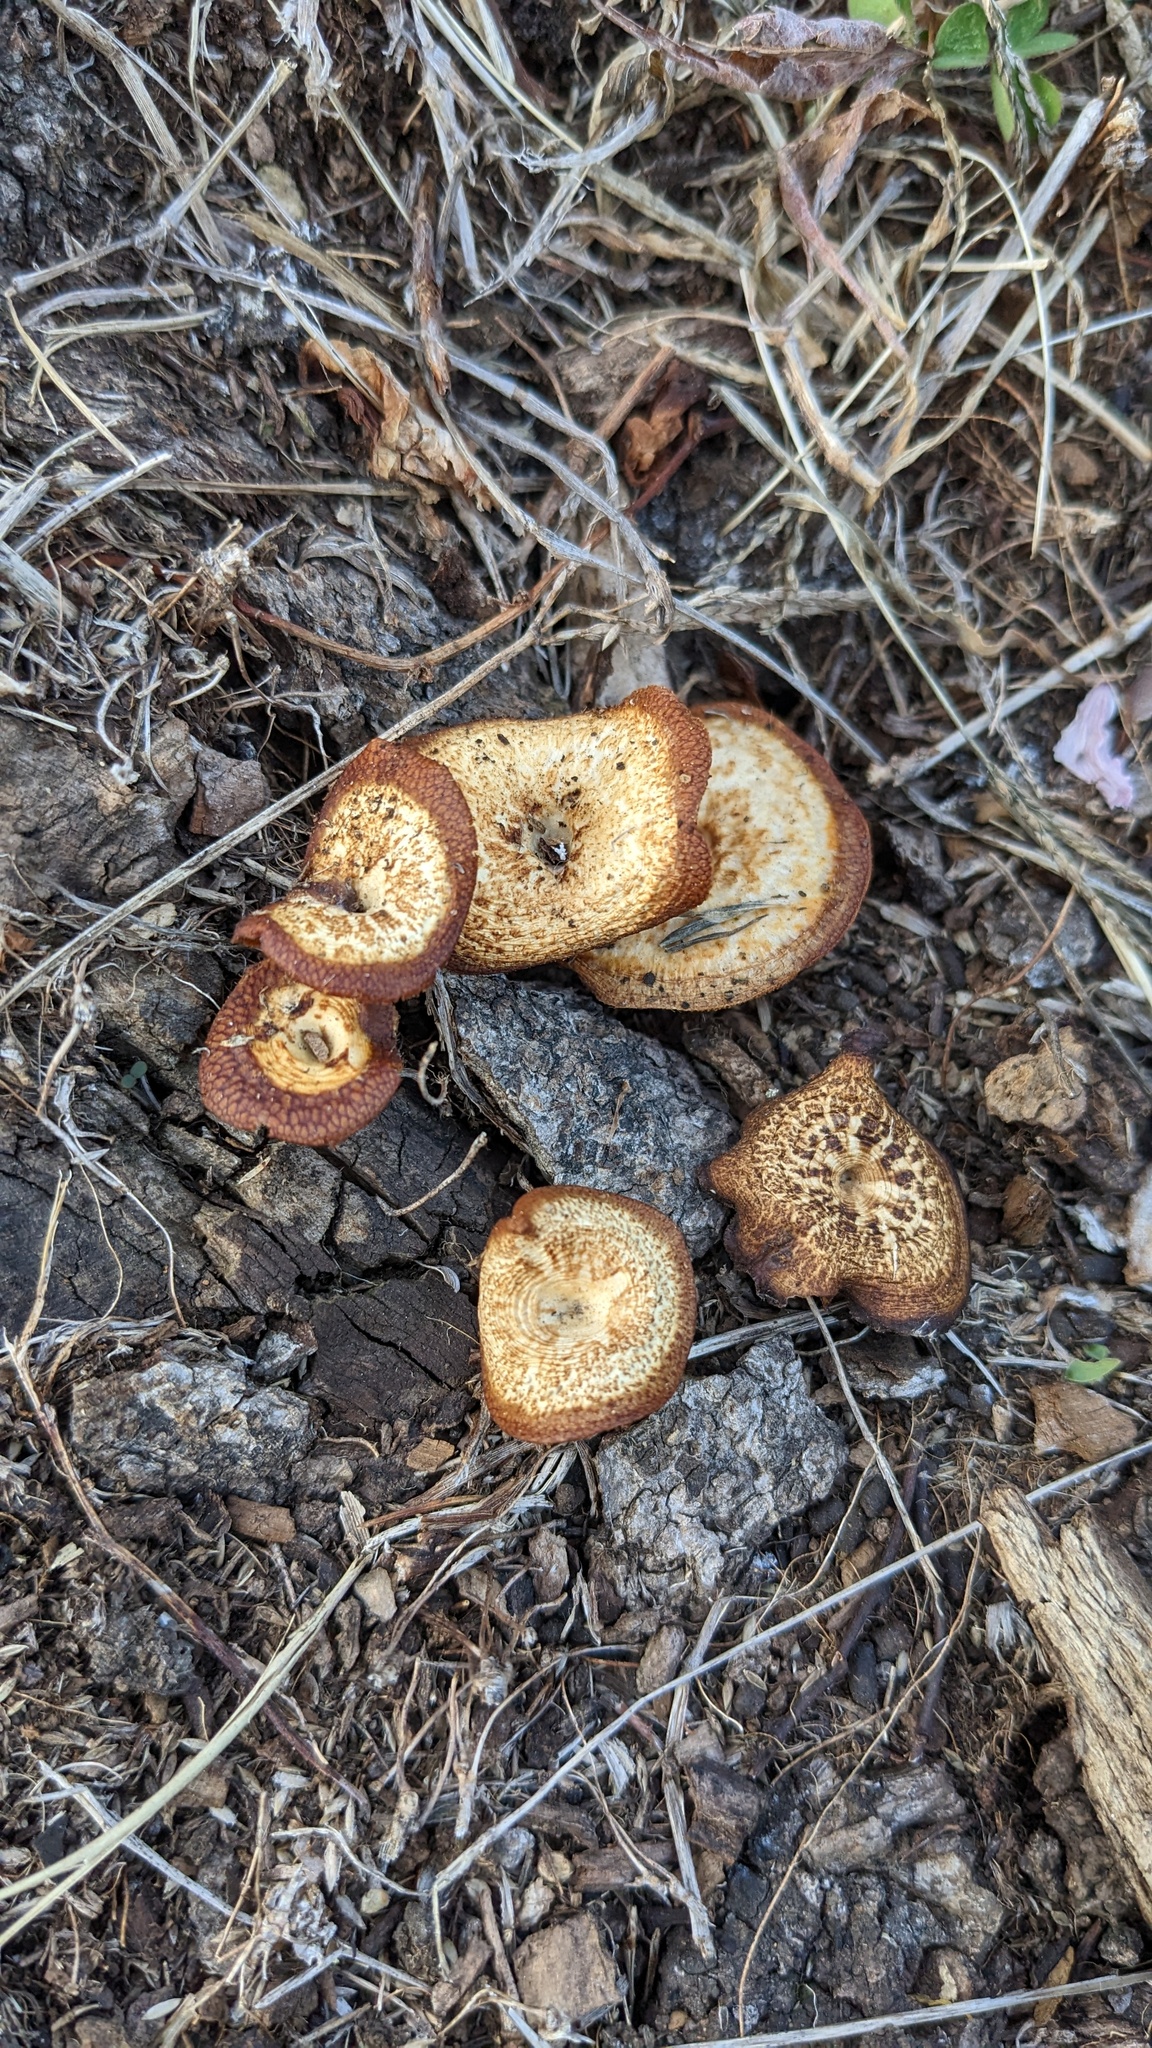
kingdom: Fungi
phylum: Basidiomycota
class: Agaricomycetes
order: Polyporales
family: Polyporaceae
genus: Lentinus
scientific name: Lentinus arcularius
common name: Spring polypore
